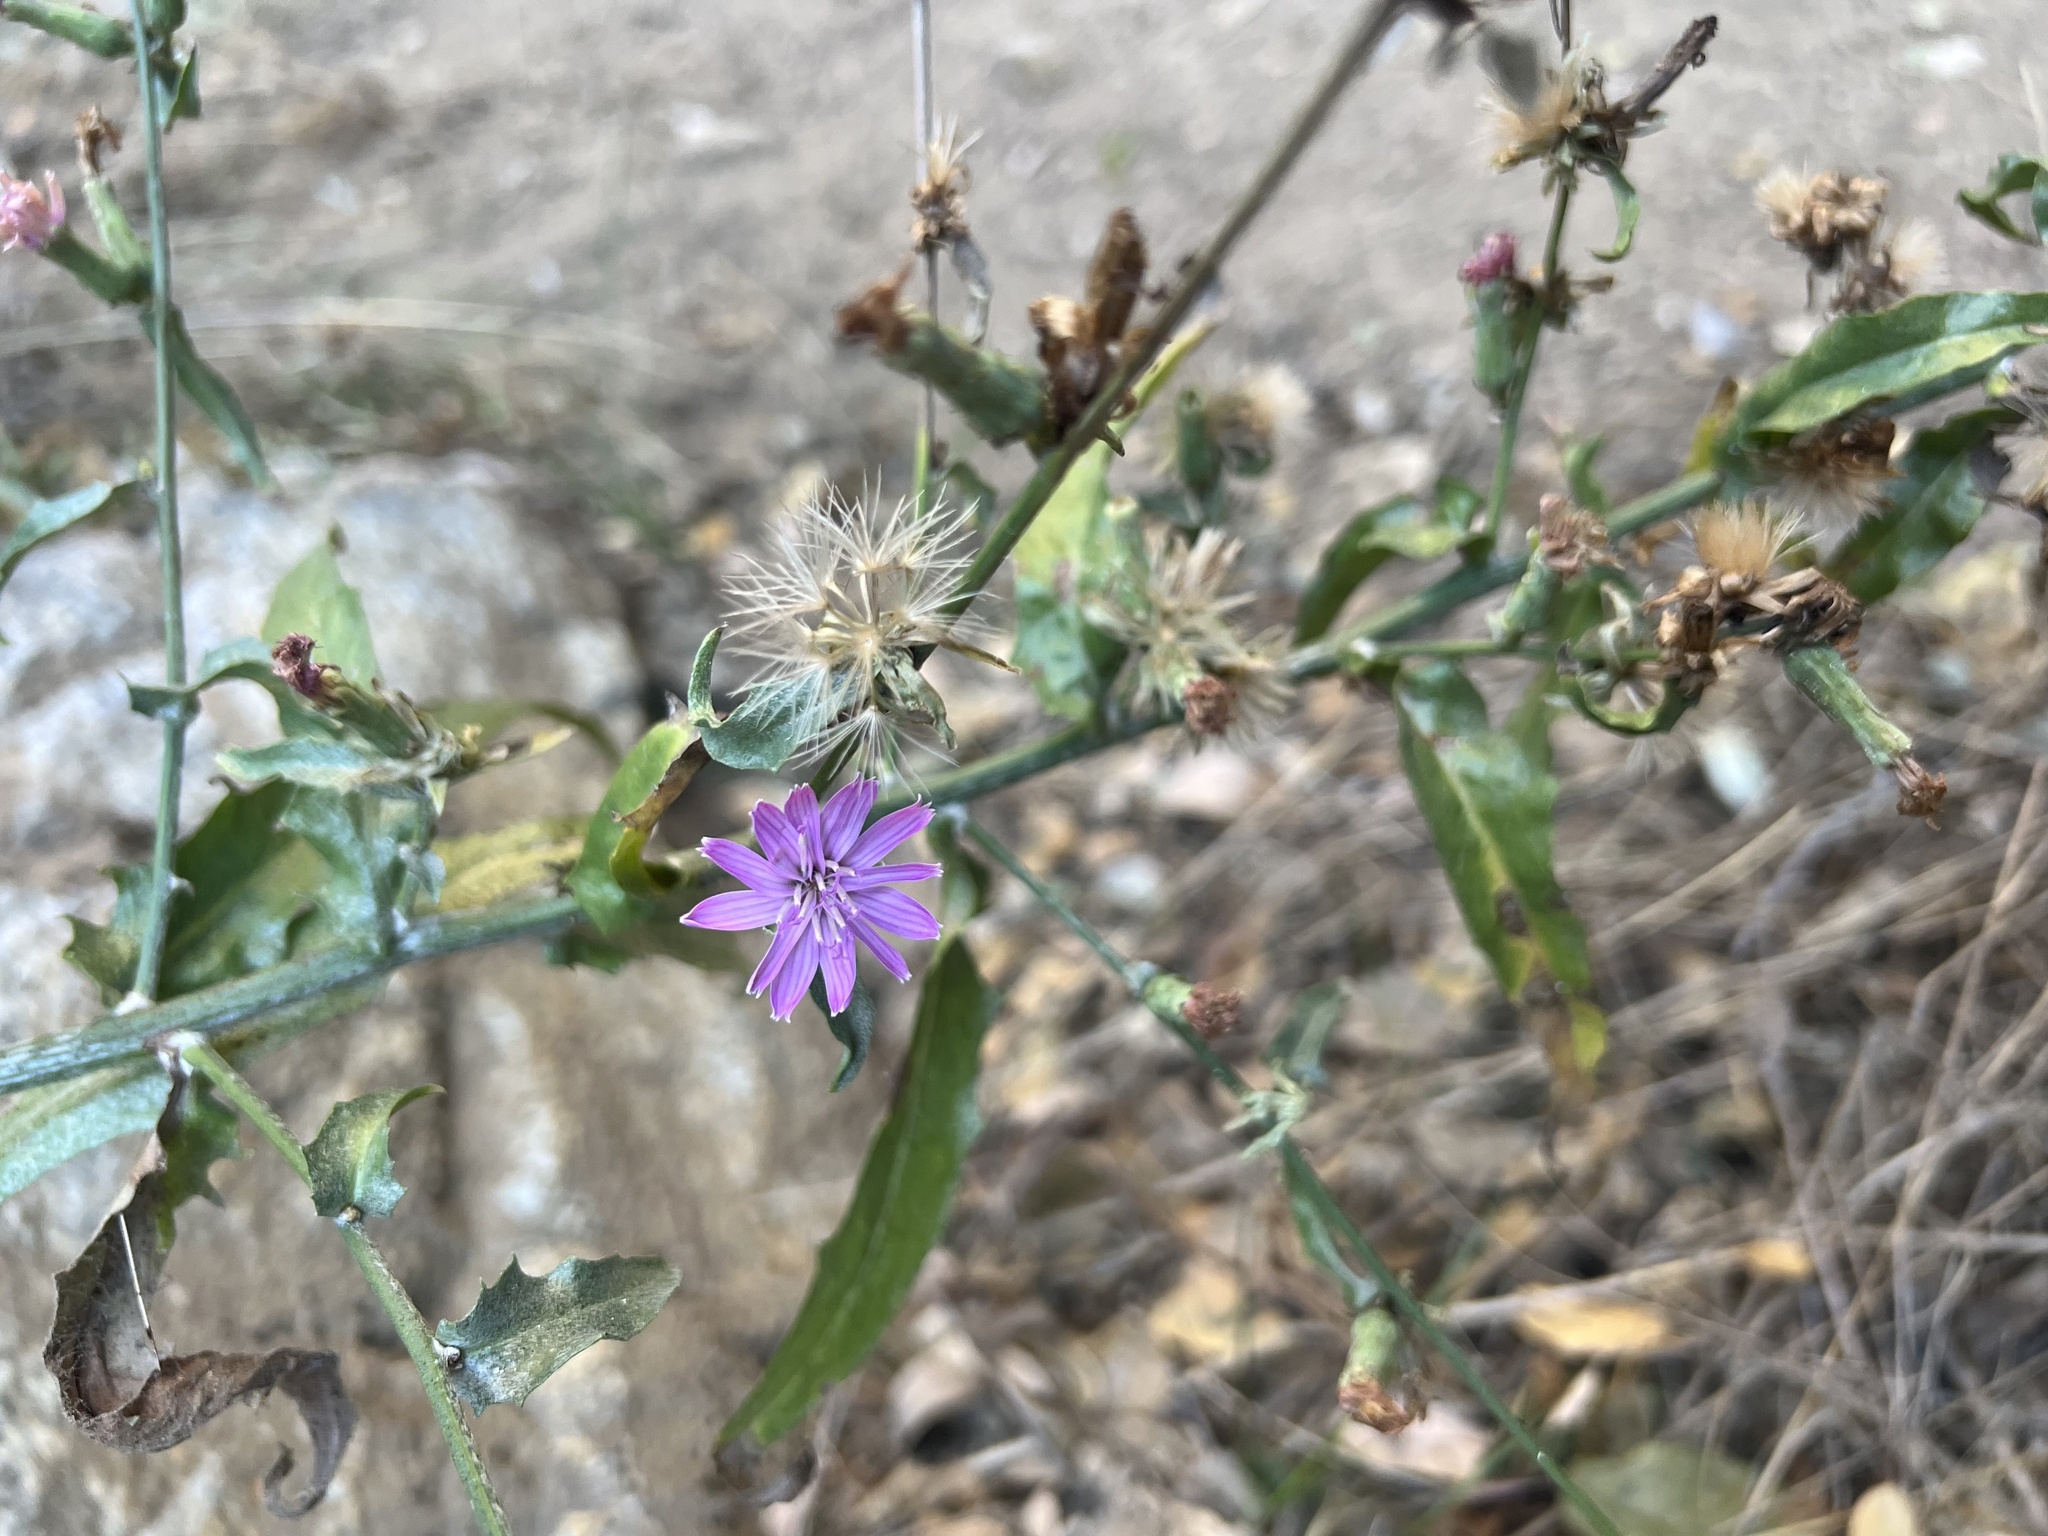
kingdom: Plantae
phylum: Tracheophyta
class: Magnoliopsida
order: Asterales
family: Asteraceae
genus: Stephanomeria
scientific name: Stephanomeria cichoriacea
